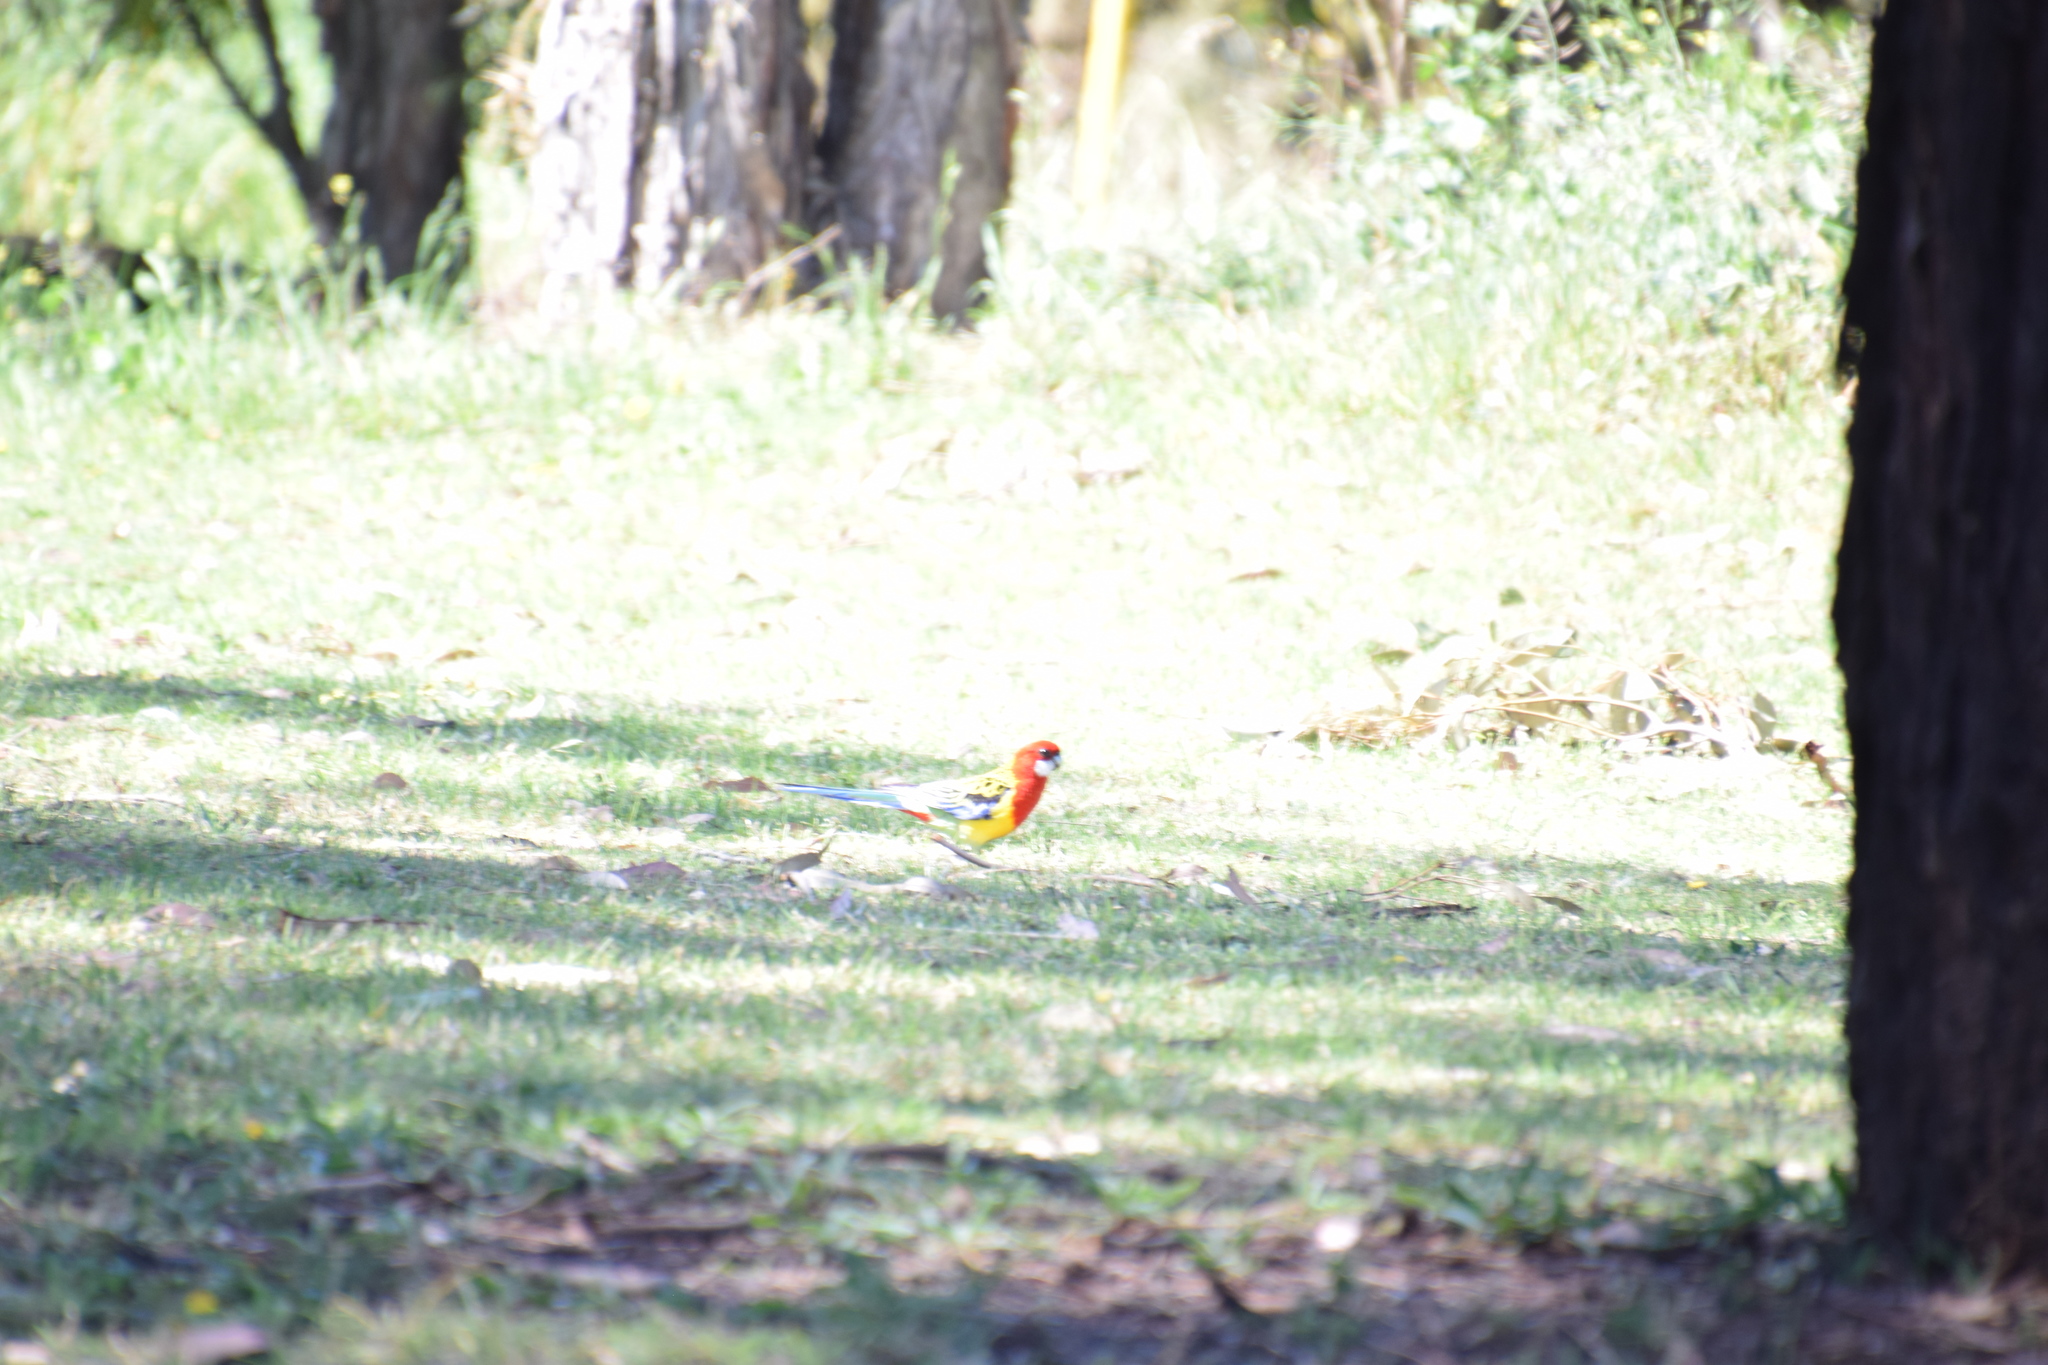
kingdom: Animalia
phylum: Chordata
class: Aves
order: Psittaciformes
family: Psittacidae
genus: Platycercus
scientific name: Platycercus eximius
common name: Eastern rosella
